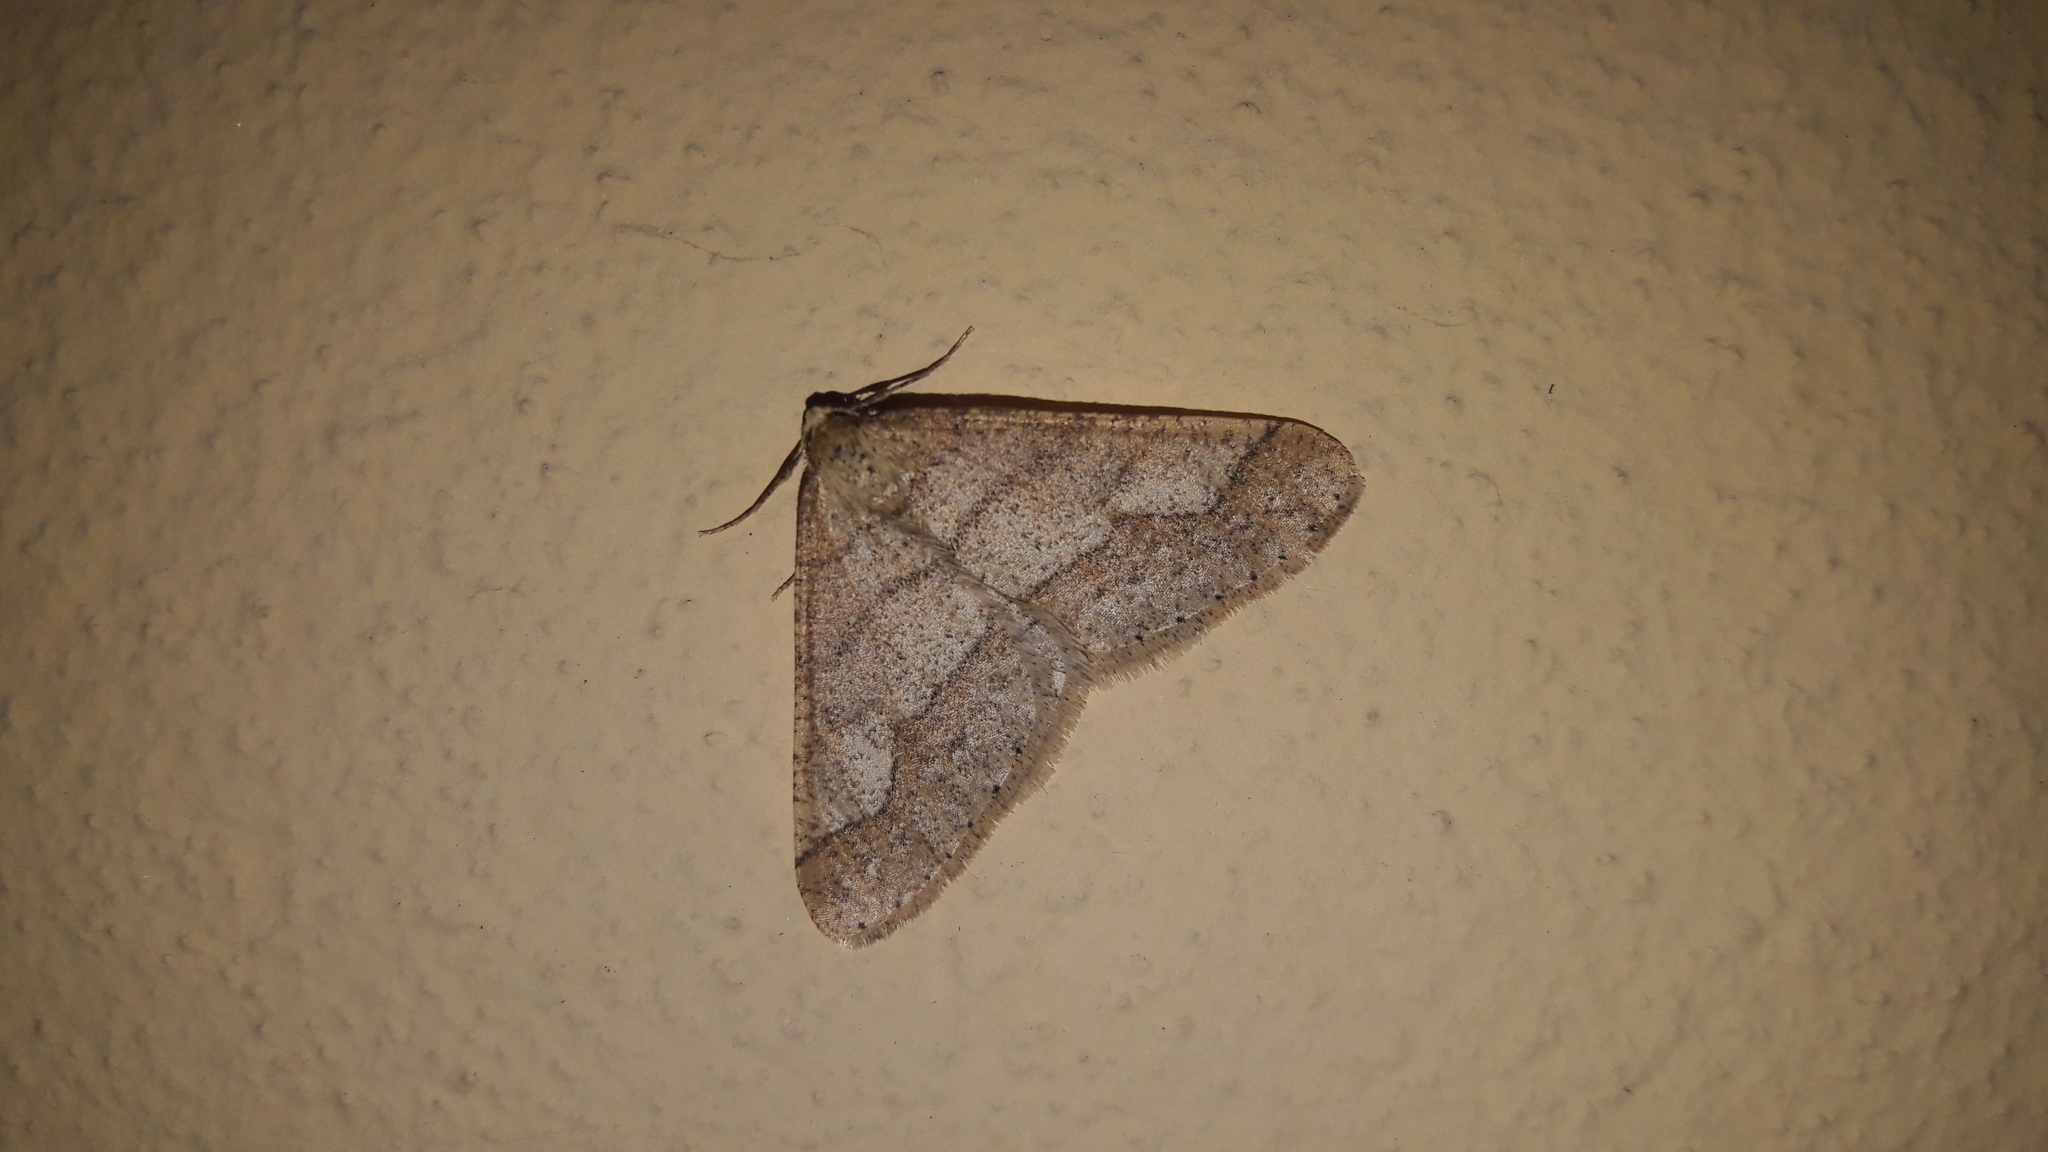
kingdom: Animalia
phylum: Arthropoda
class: Insecta
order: Lepidoptera
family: Geometridae
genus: Agriopis
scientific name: Agriopis marginaria
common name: Dotted border
